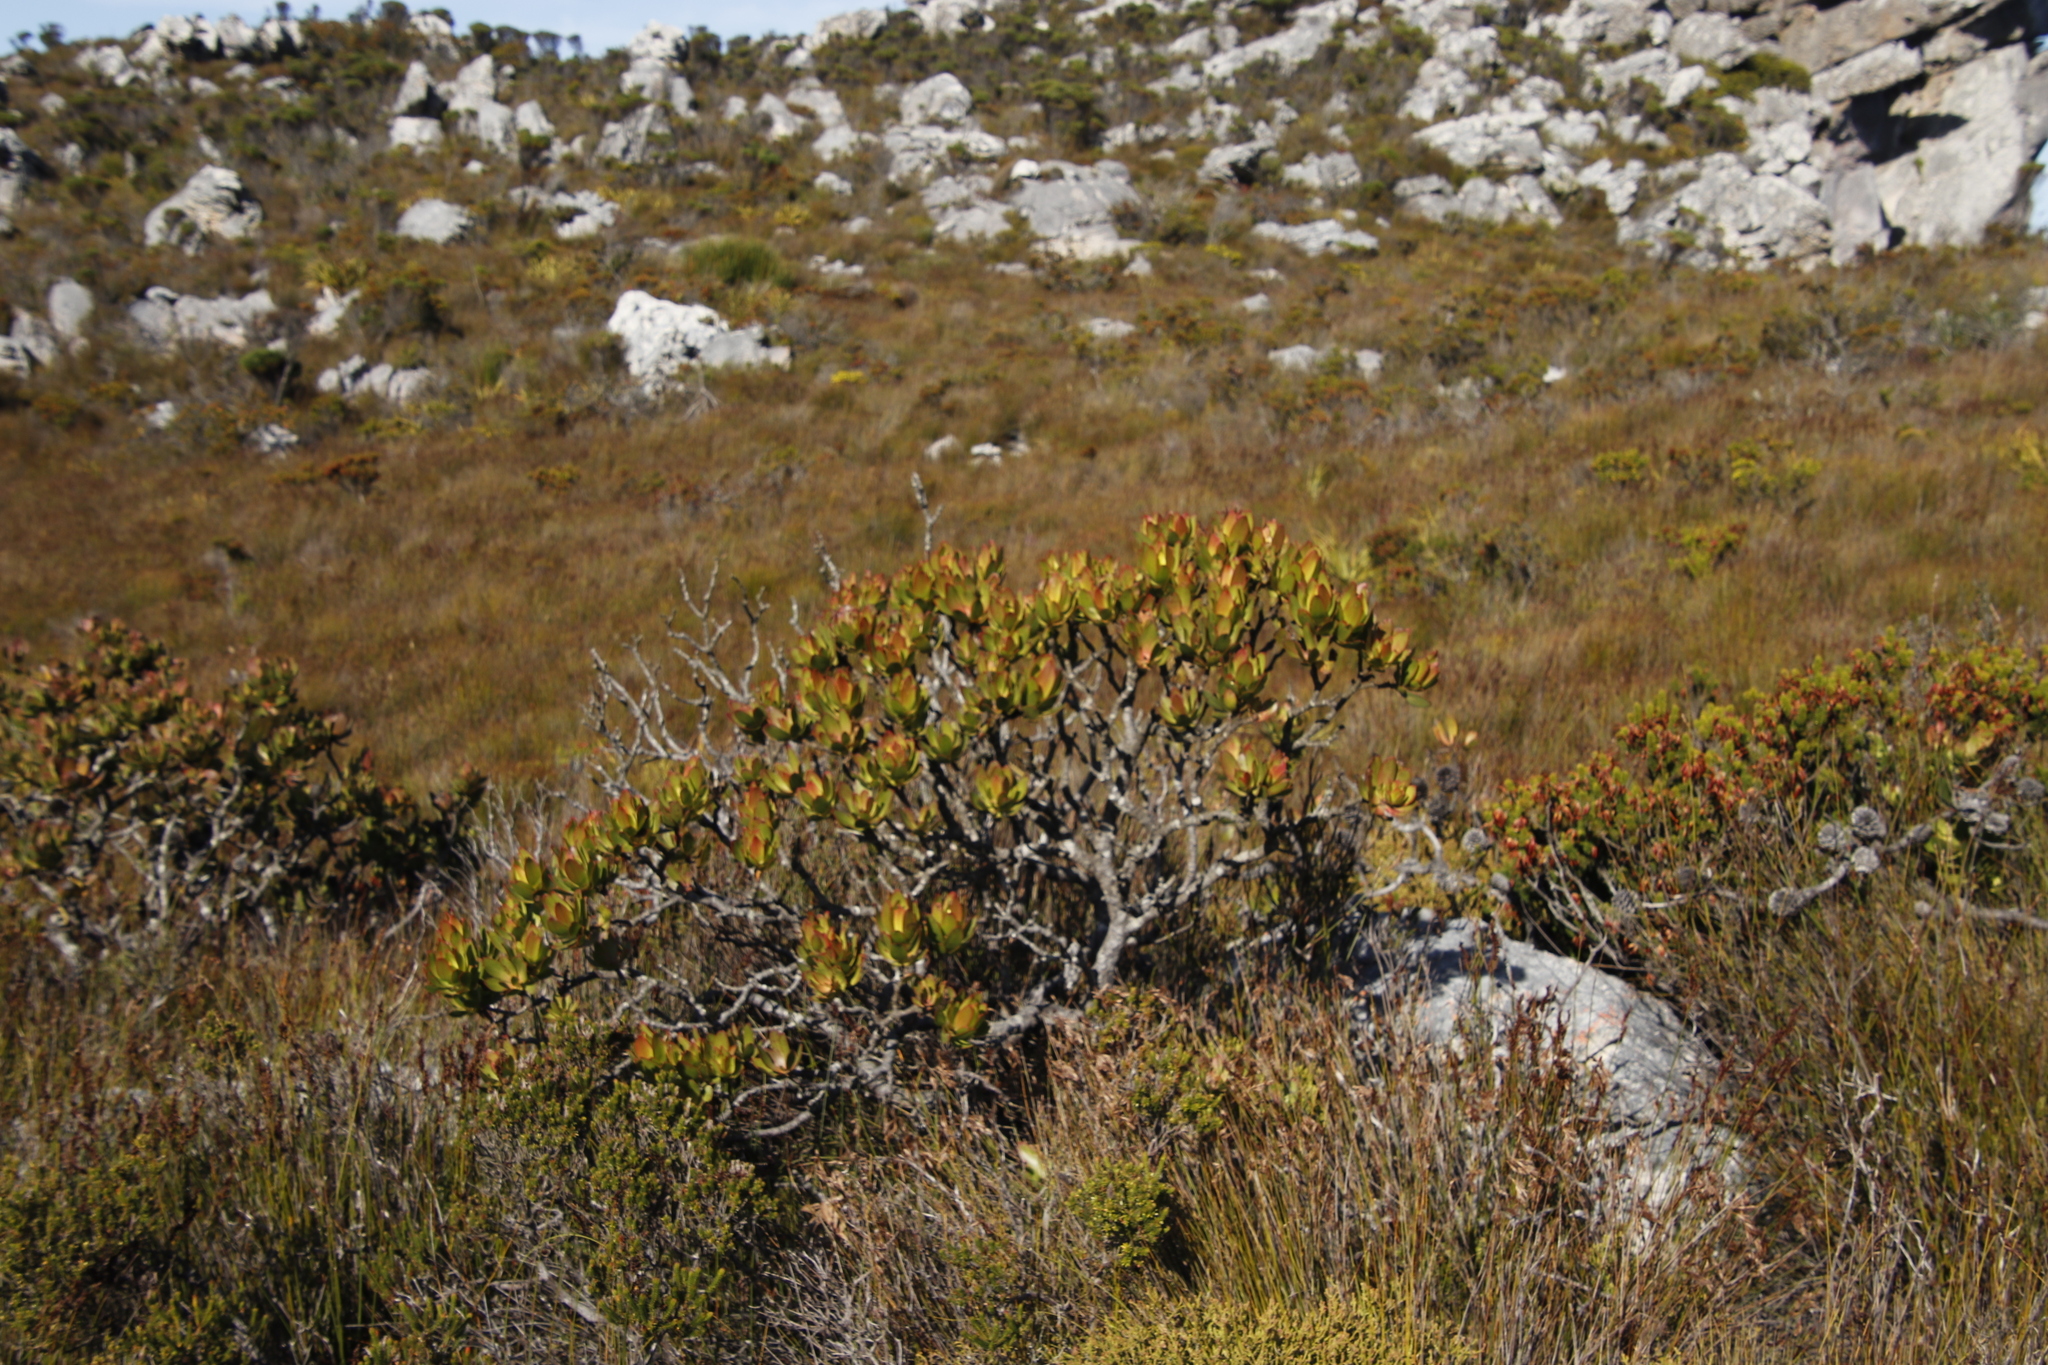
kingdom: Plantae
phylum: Tracheophyta
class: Magnoliopsida
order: Proteales
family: Proteaceae
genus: Leucadendron
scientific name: Leucadendron gandogeri
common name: Broad-leaf conebush
